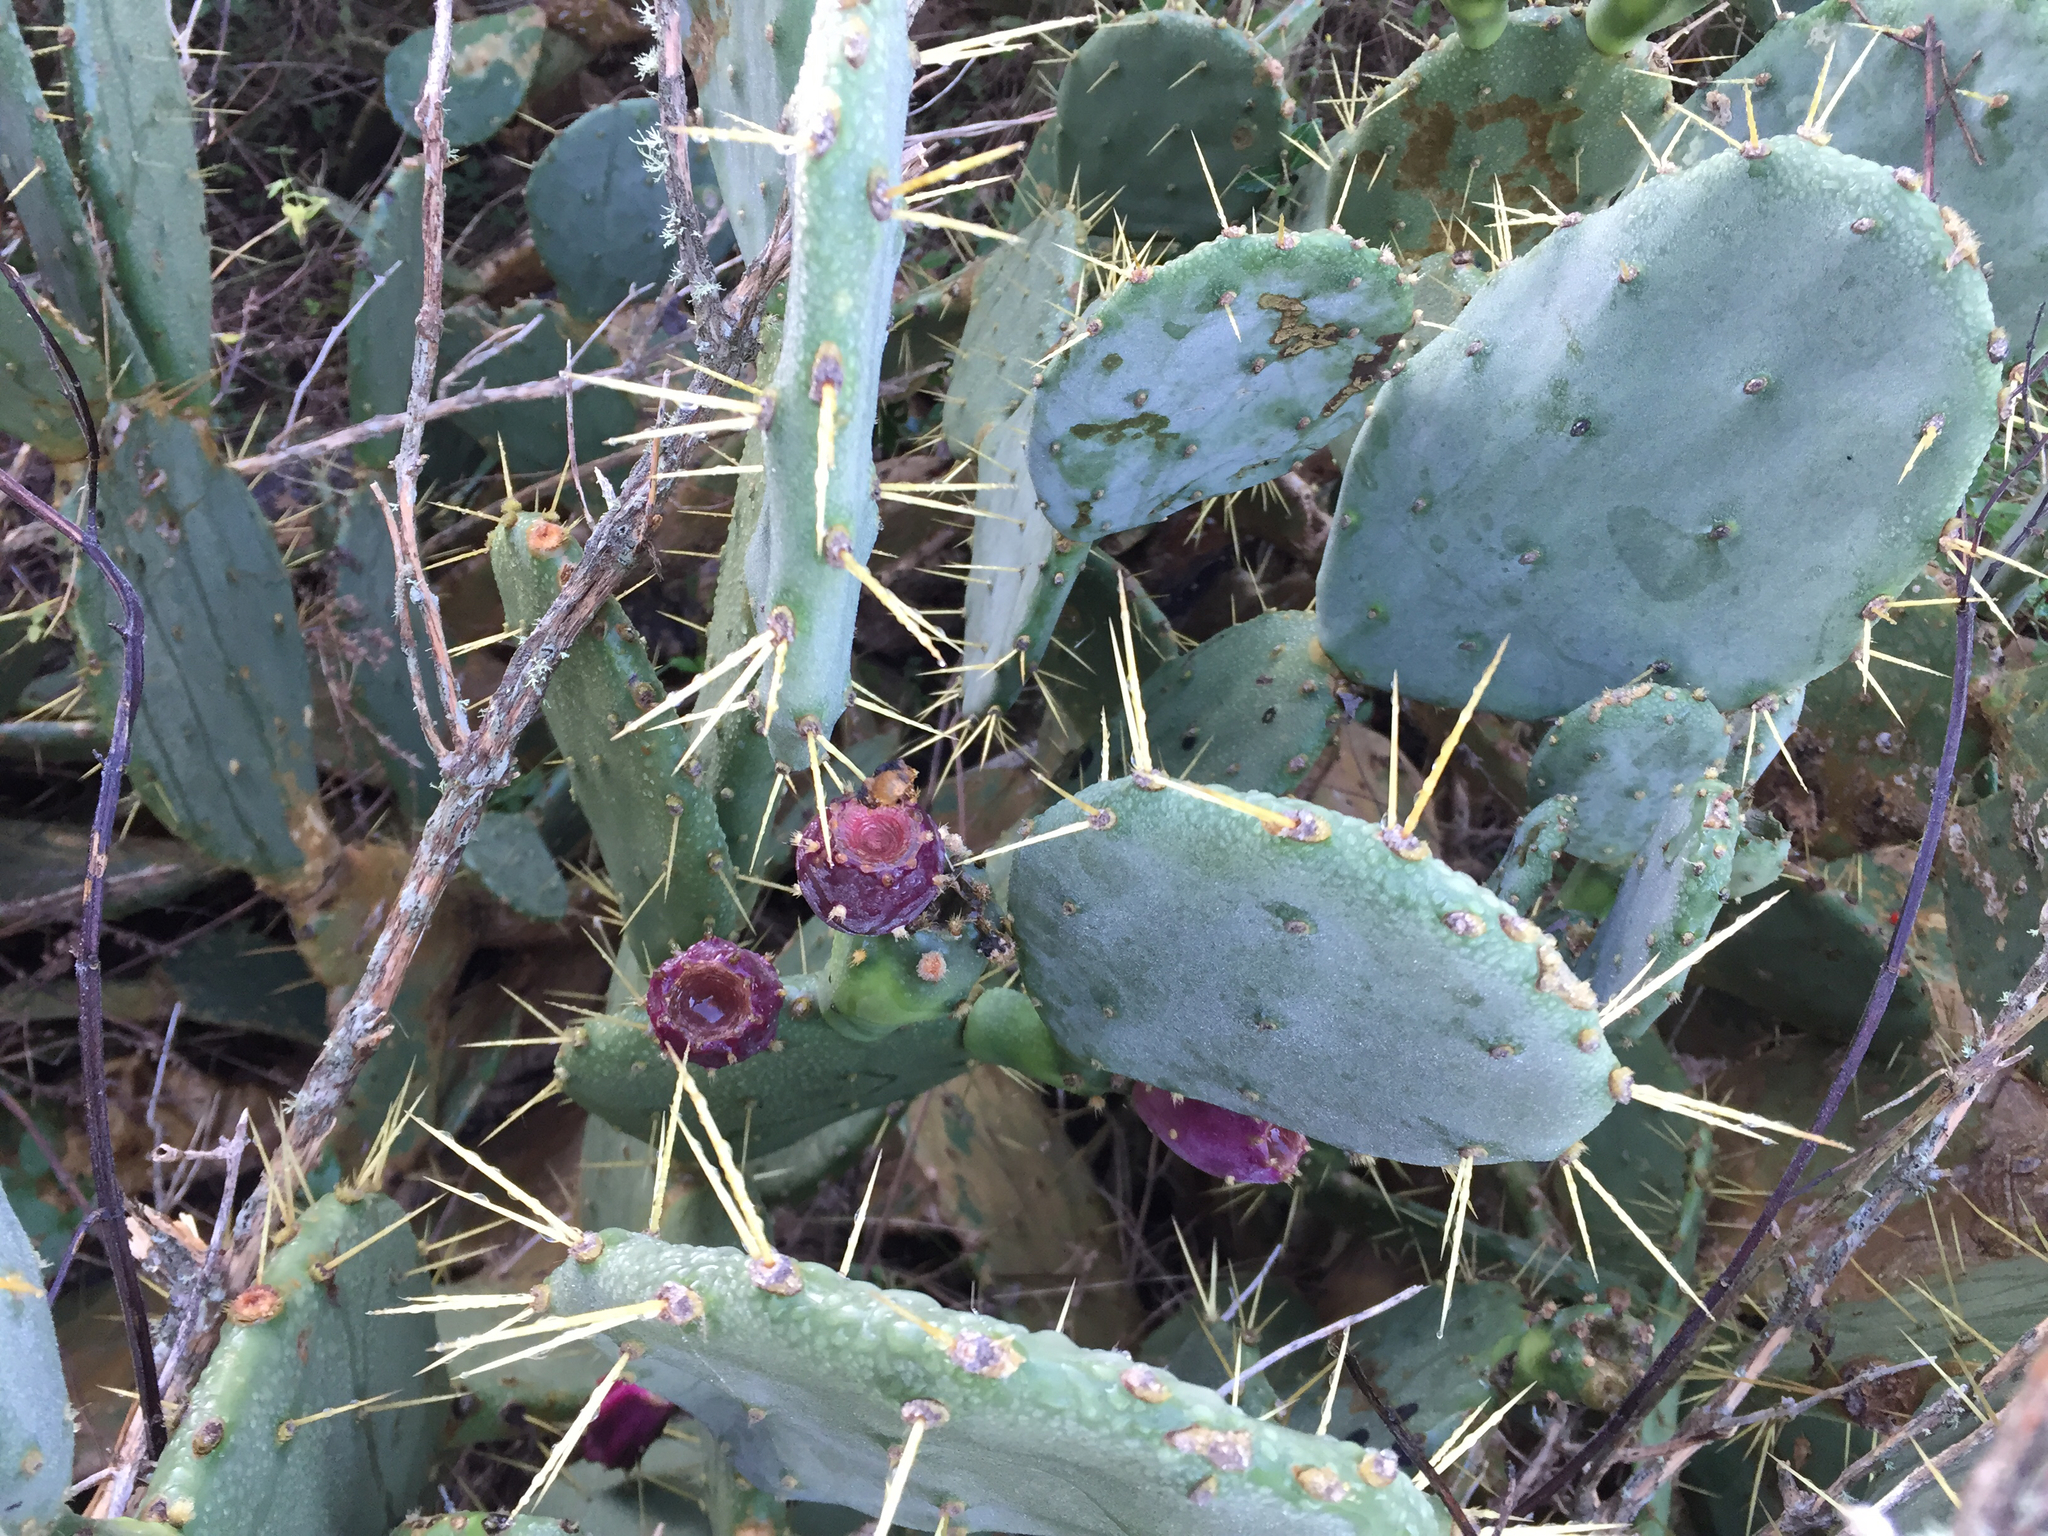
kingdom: Plantae
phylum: Tracheophyta
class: Magnoliopsida
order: Caryophyllales
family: Cactaceae
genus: Opuntia
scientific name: Opuntia anahuacensis
